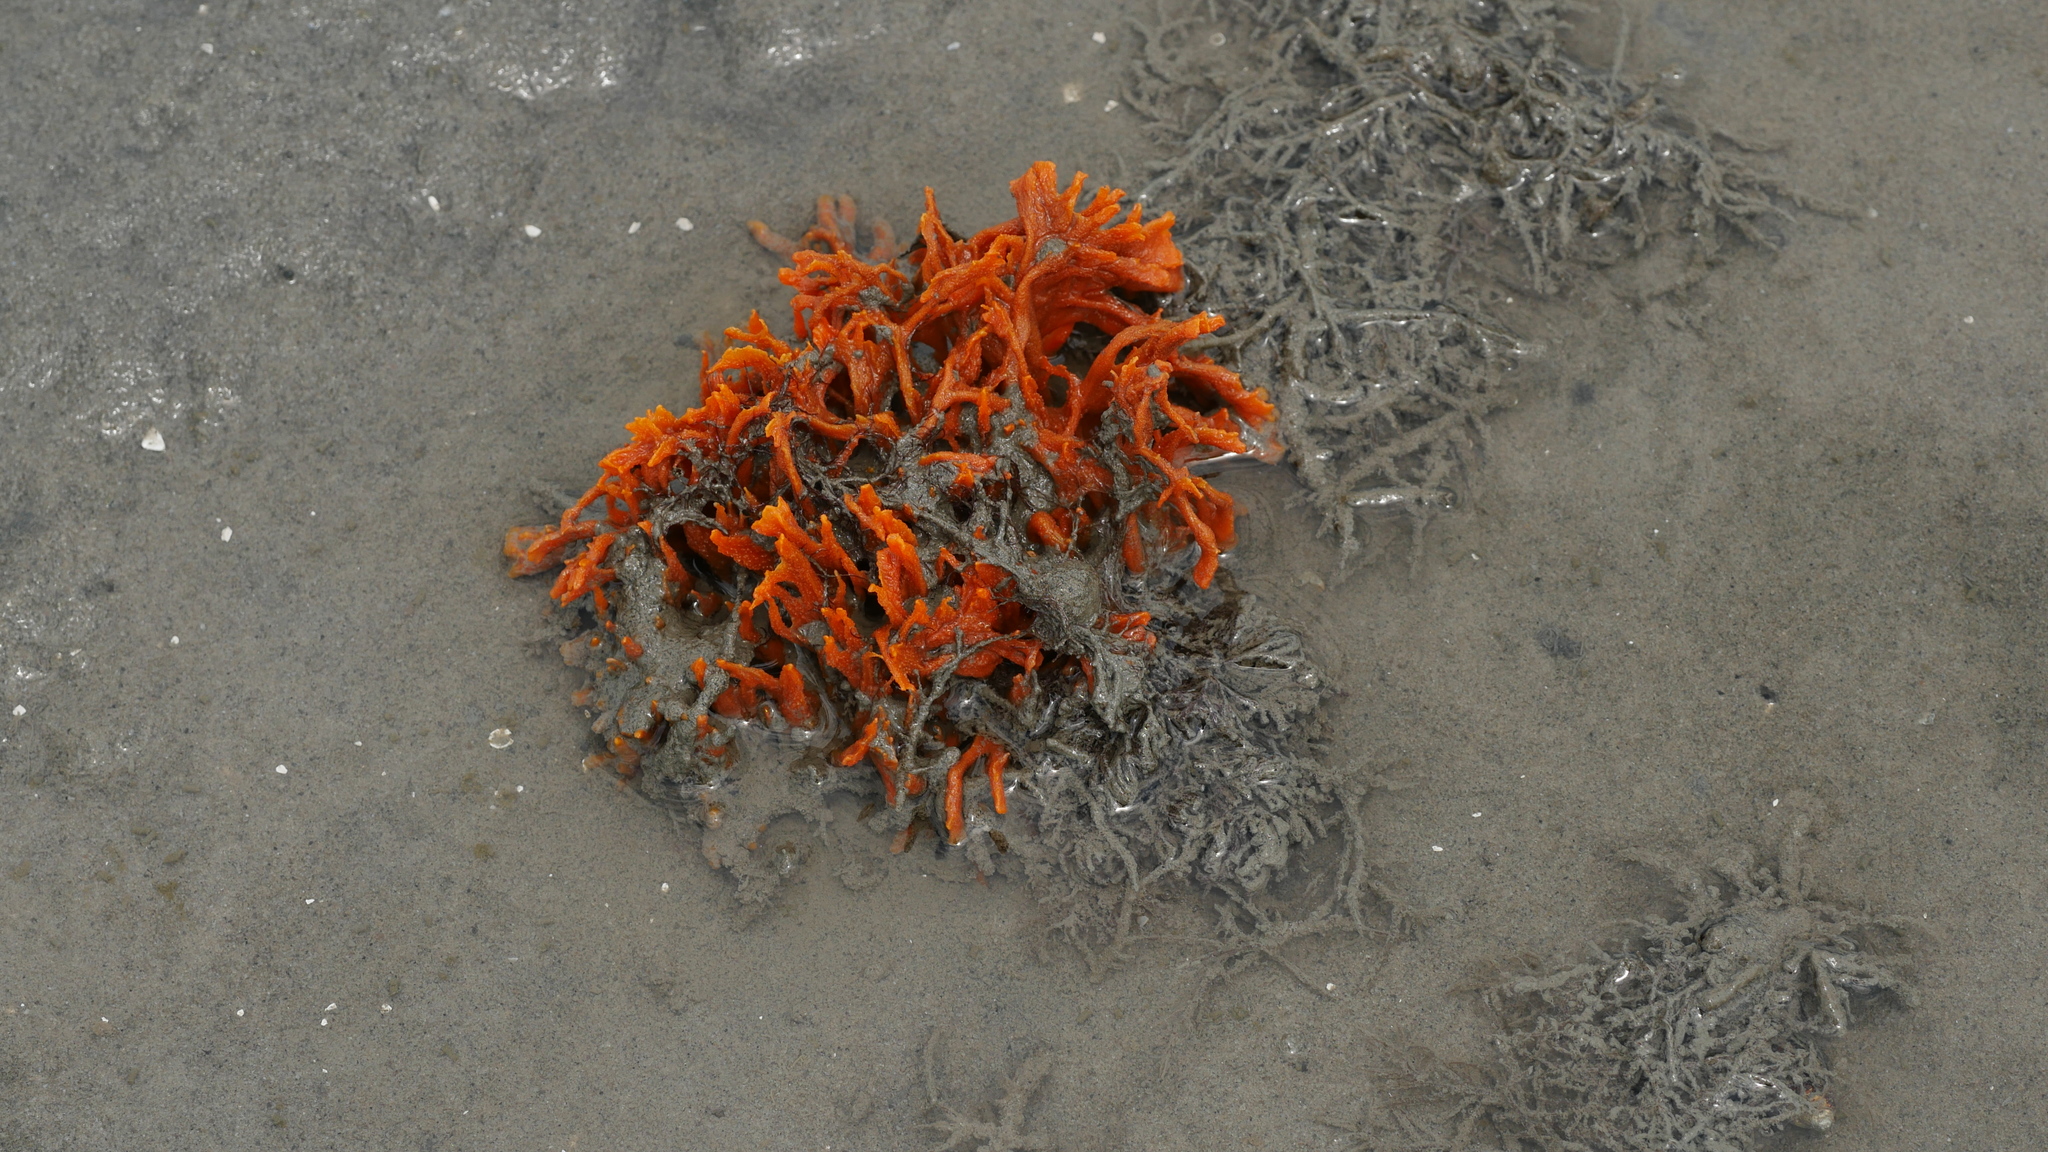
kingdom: Animalia
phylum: Porifera
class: Demospongiae
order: Suberitida
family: Halichondriidae
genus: Hymeniacidon
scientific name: Hymeniacidon heliophila
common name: Diurnal horny sponge
